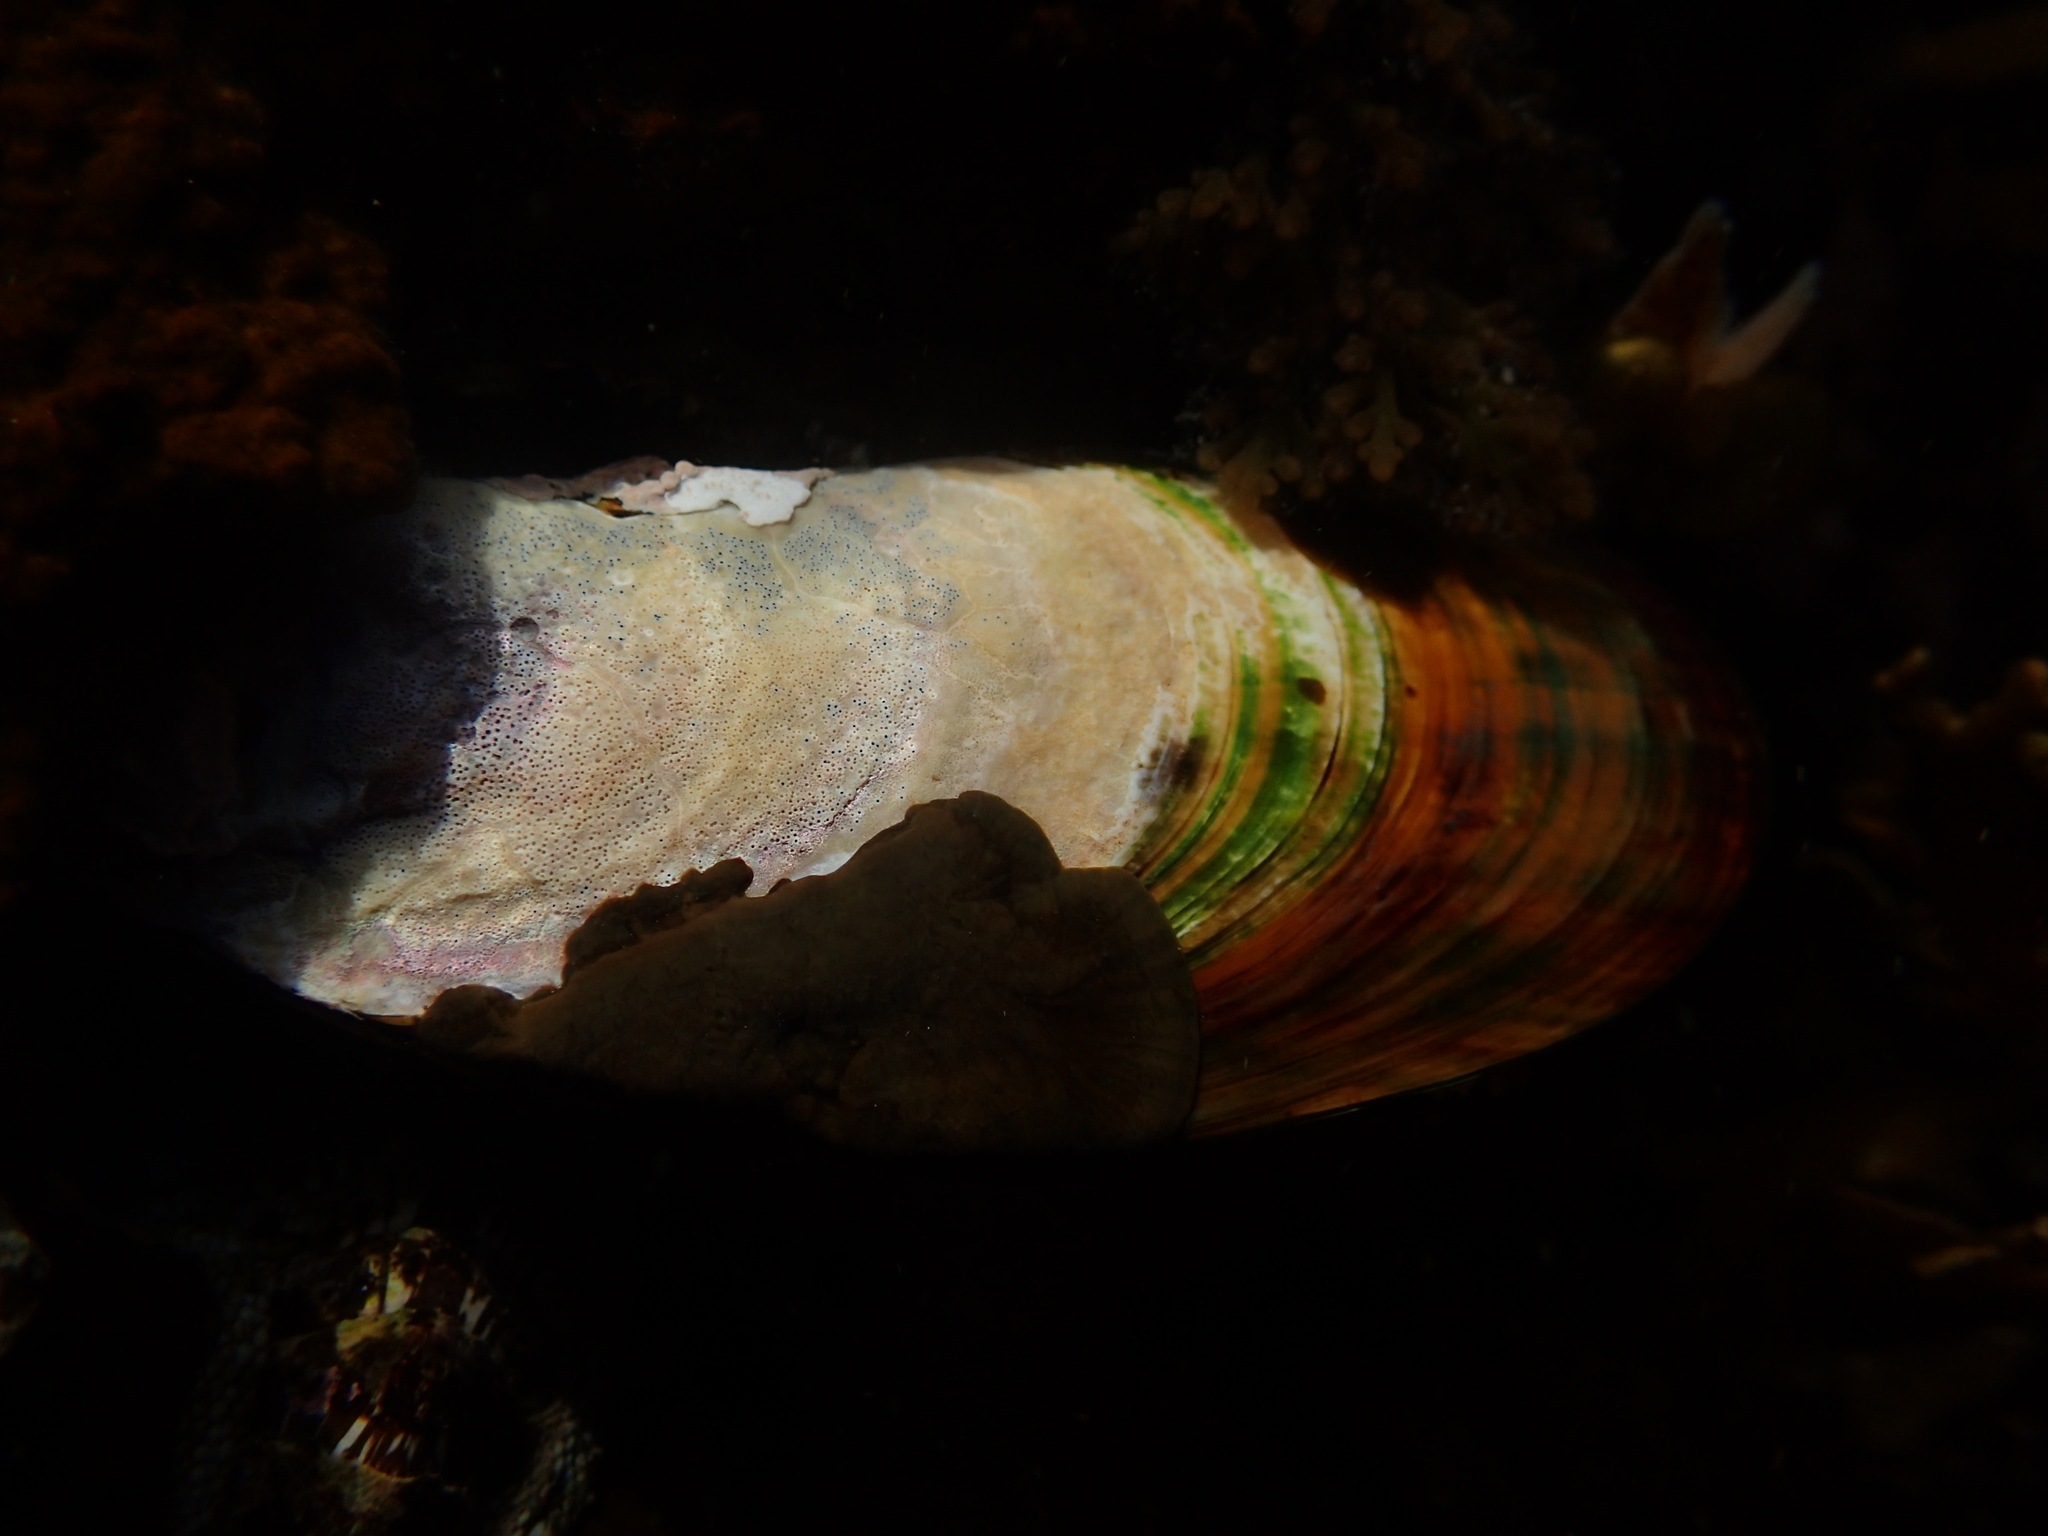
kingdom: Animalia
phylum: Mollusca
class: Bivalvia
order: Mytilida
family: Mytilidae
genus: Perna
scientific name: Perna canaliculus
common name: New zealand greenshelltm
